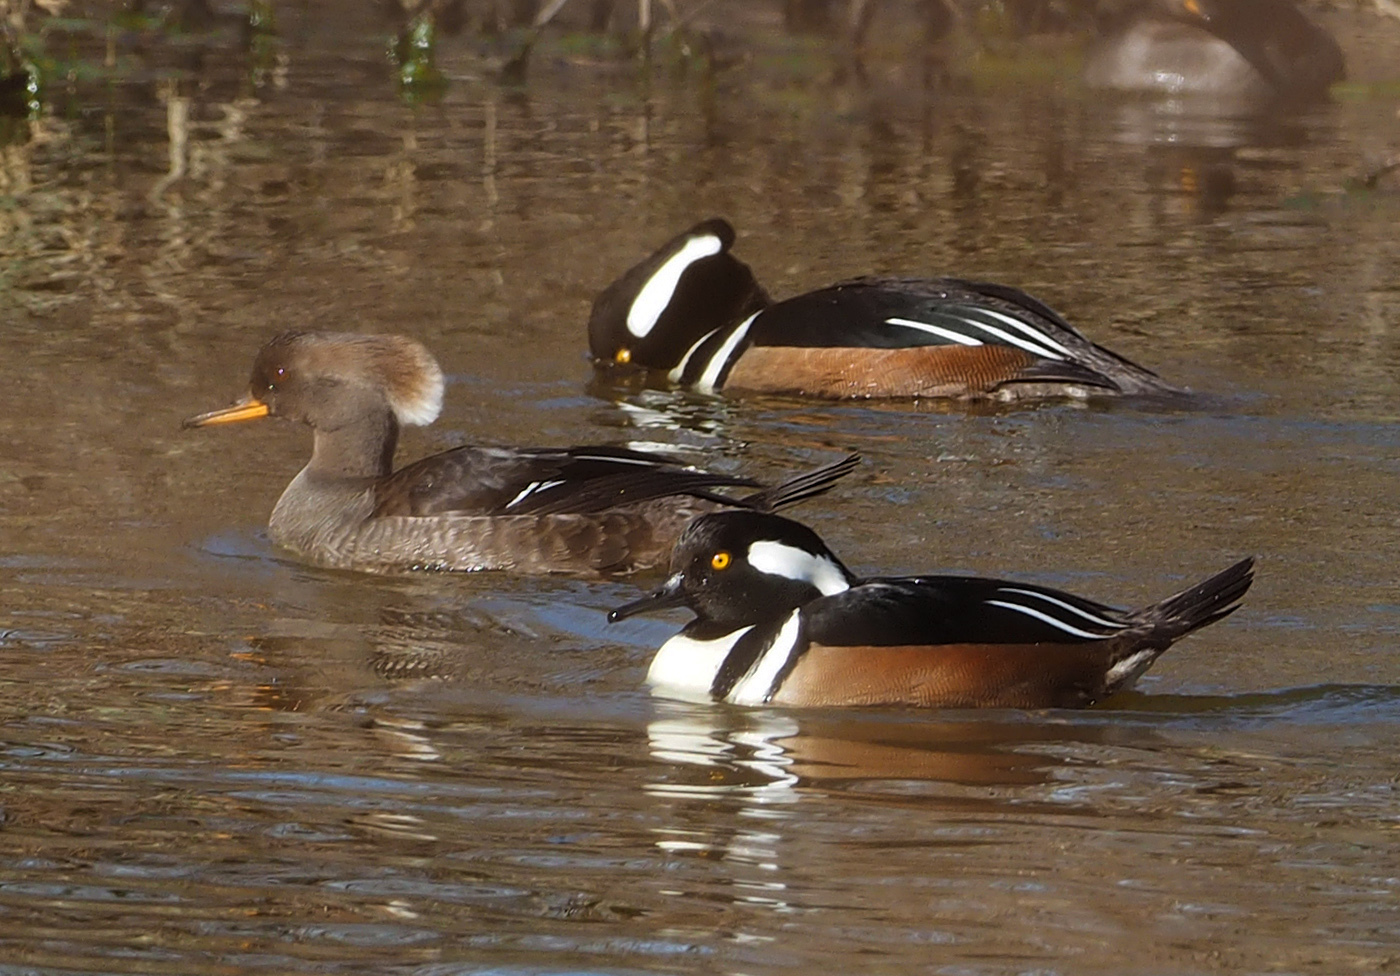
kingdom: Animalia
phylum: Chordata
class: Aves
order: Anseriformes
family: Anatidae
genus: Lophodytes
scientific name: Lophodytes cucullatus
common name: Hooded merganser
